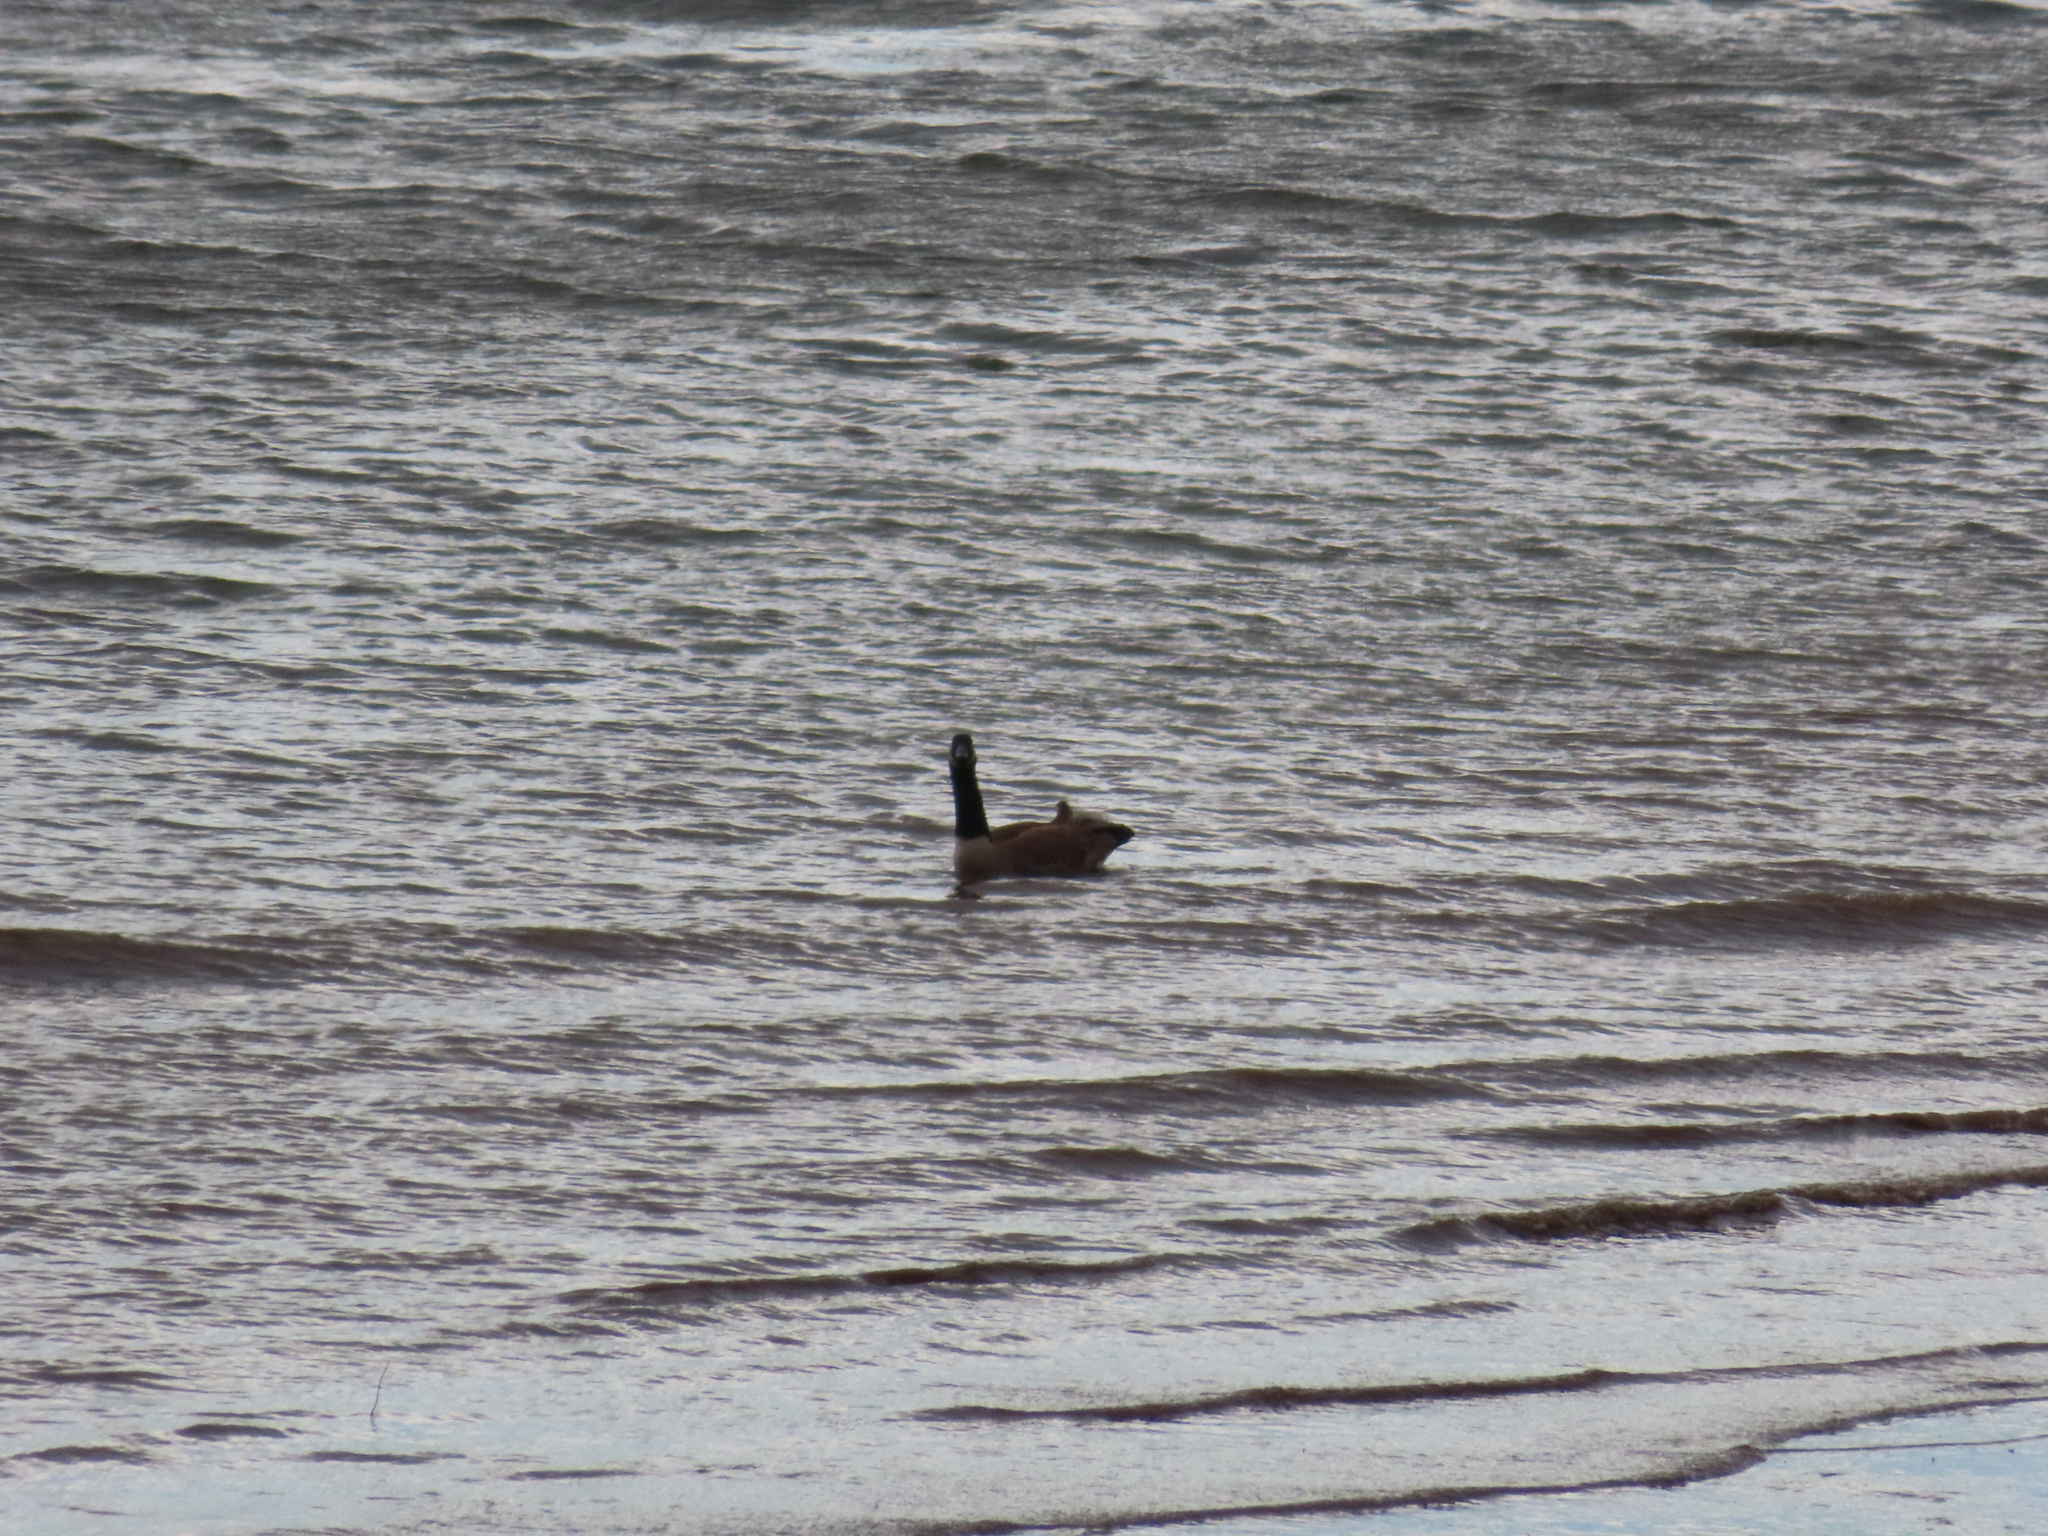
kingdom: Animalia
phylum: Chordata
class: Aves
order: Anseriformes
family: Anatidae
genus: Branta
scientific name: Branta canadensis
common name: Canada goose
